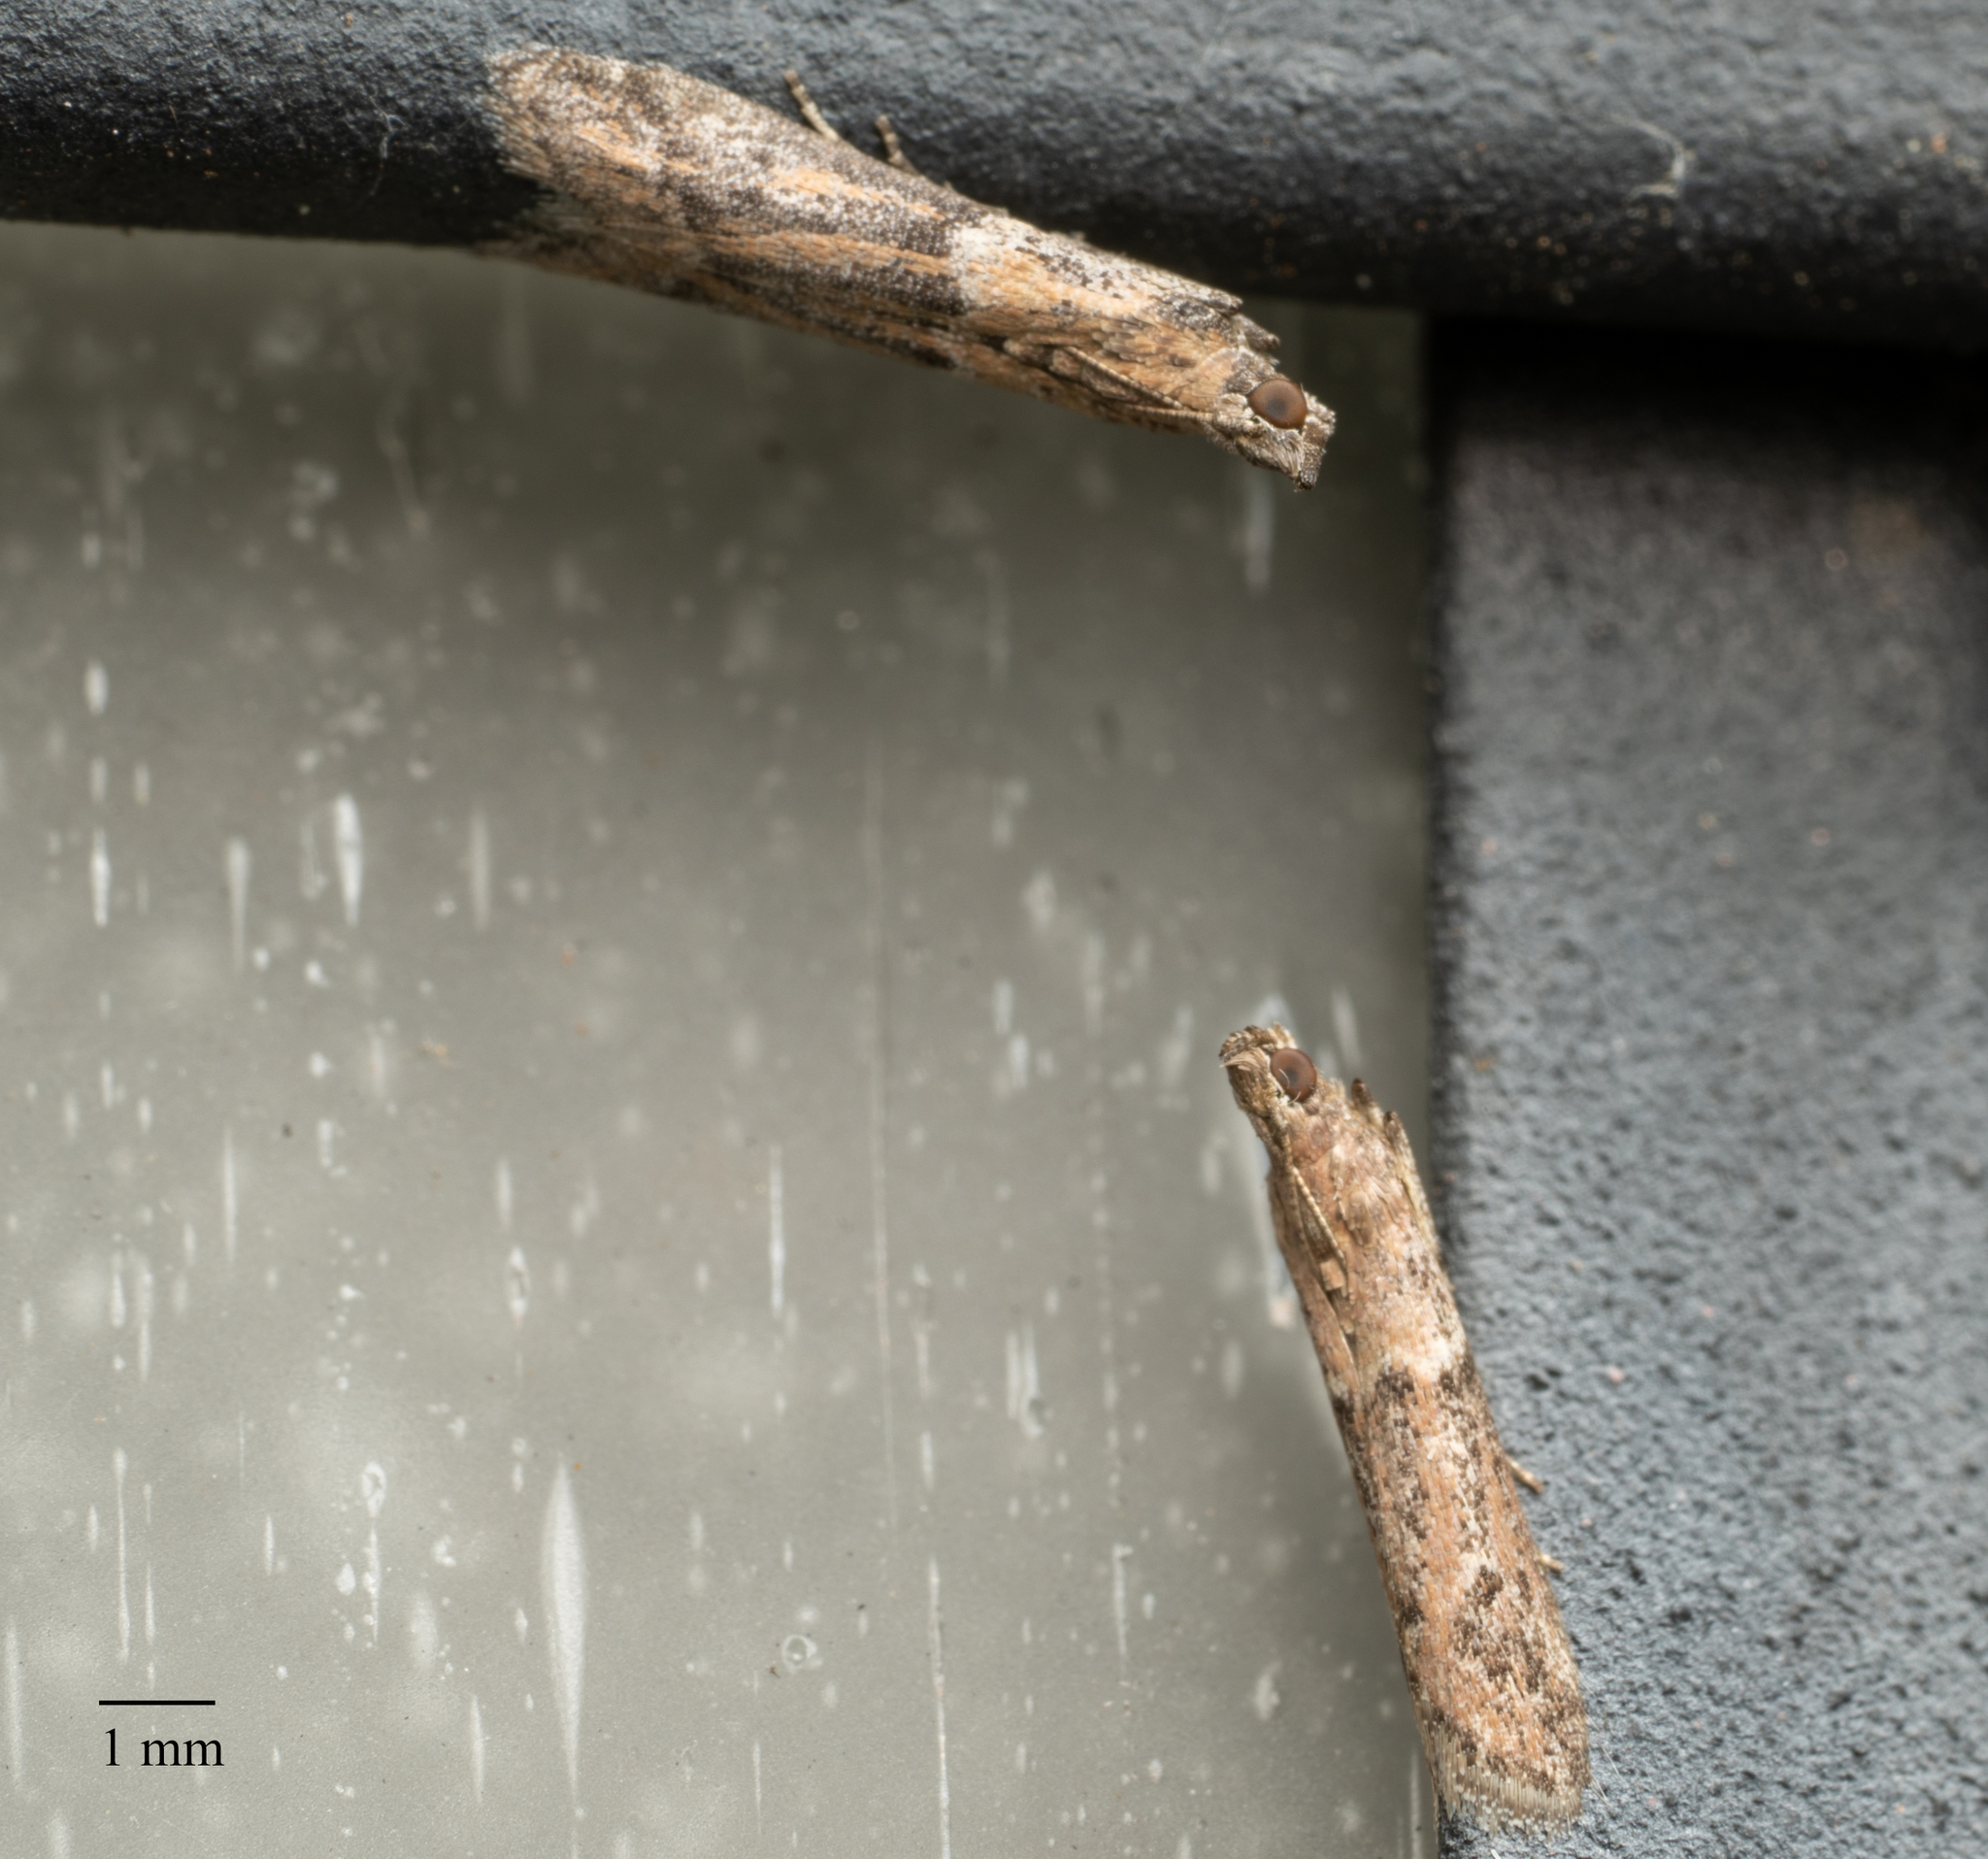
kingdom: Animalia
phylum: Arthropoda
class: Insecta
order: Lepidoptera
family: Pyralidae
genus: Ephestiodes
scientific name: Ephestiodes gilvescentella
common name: Moth
